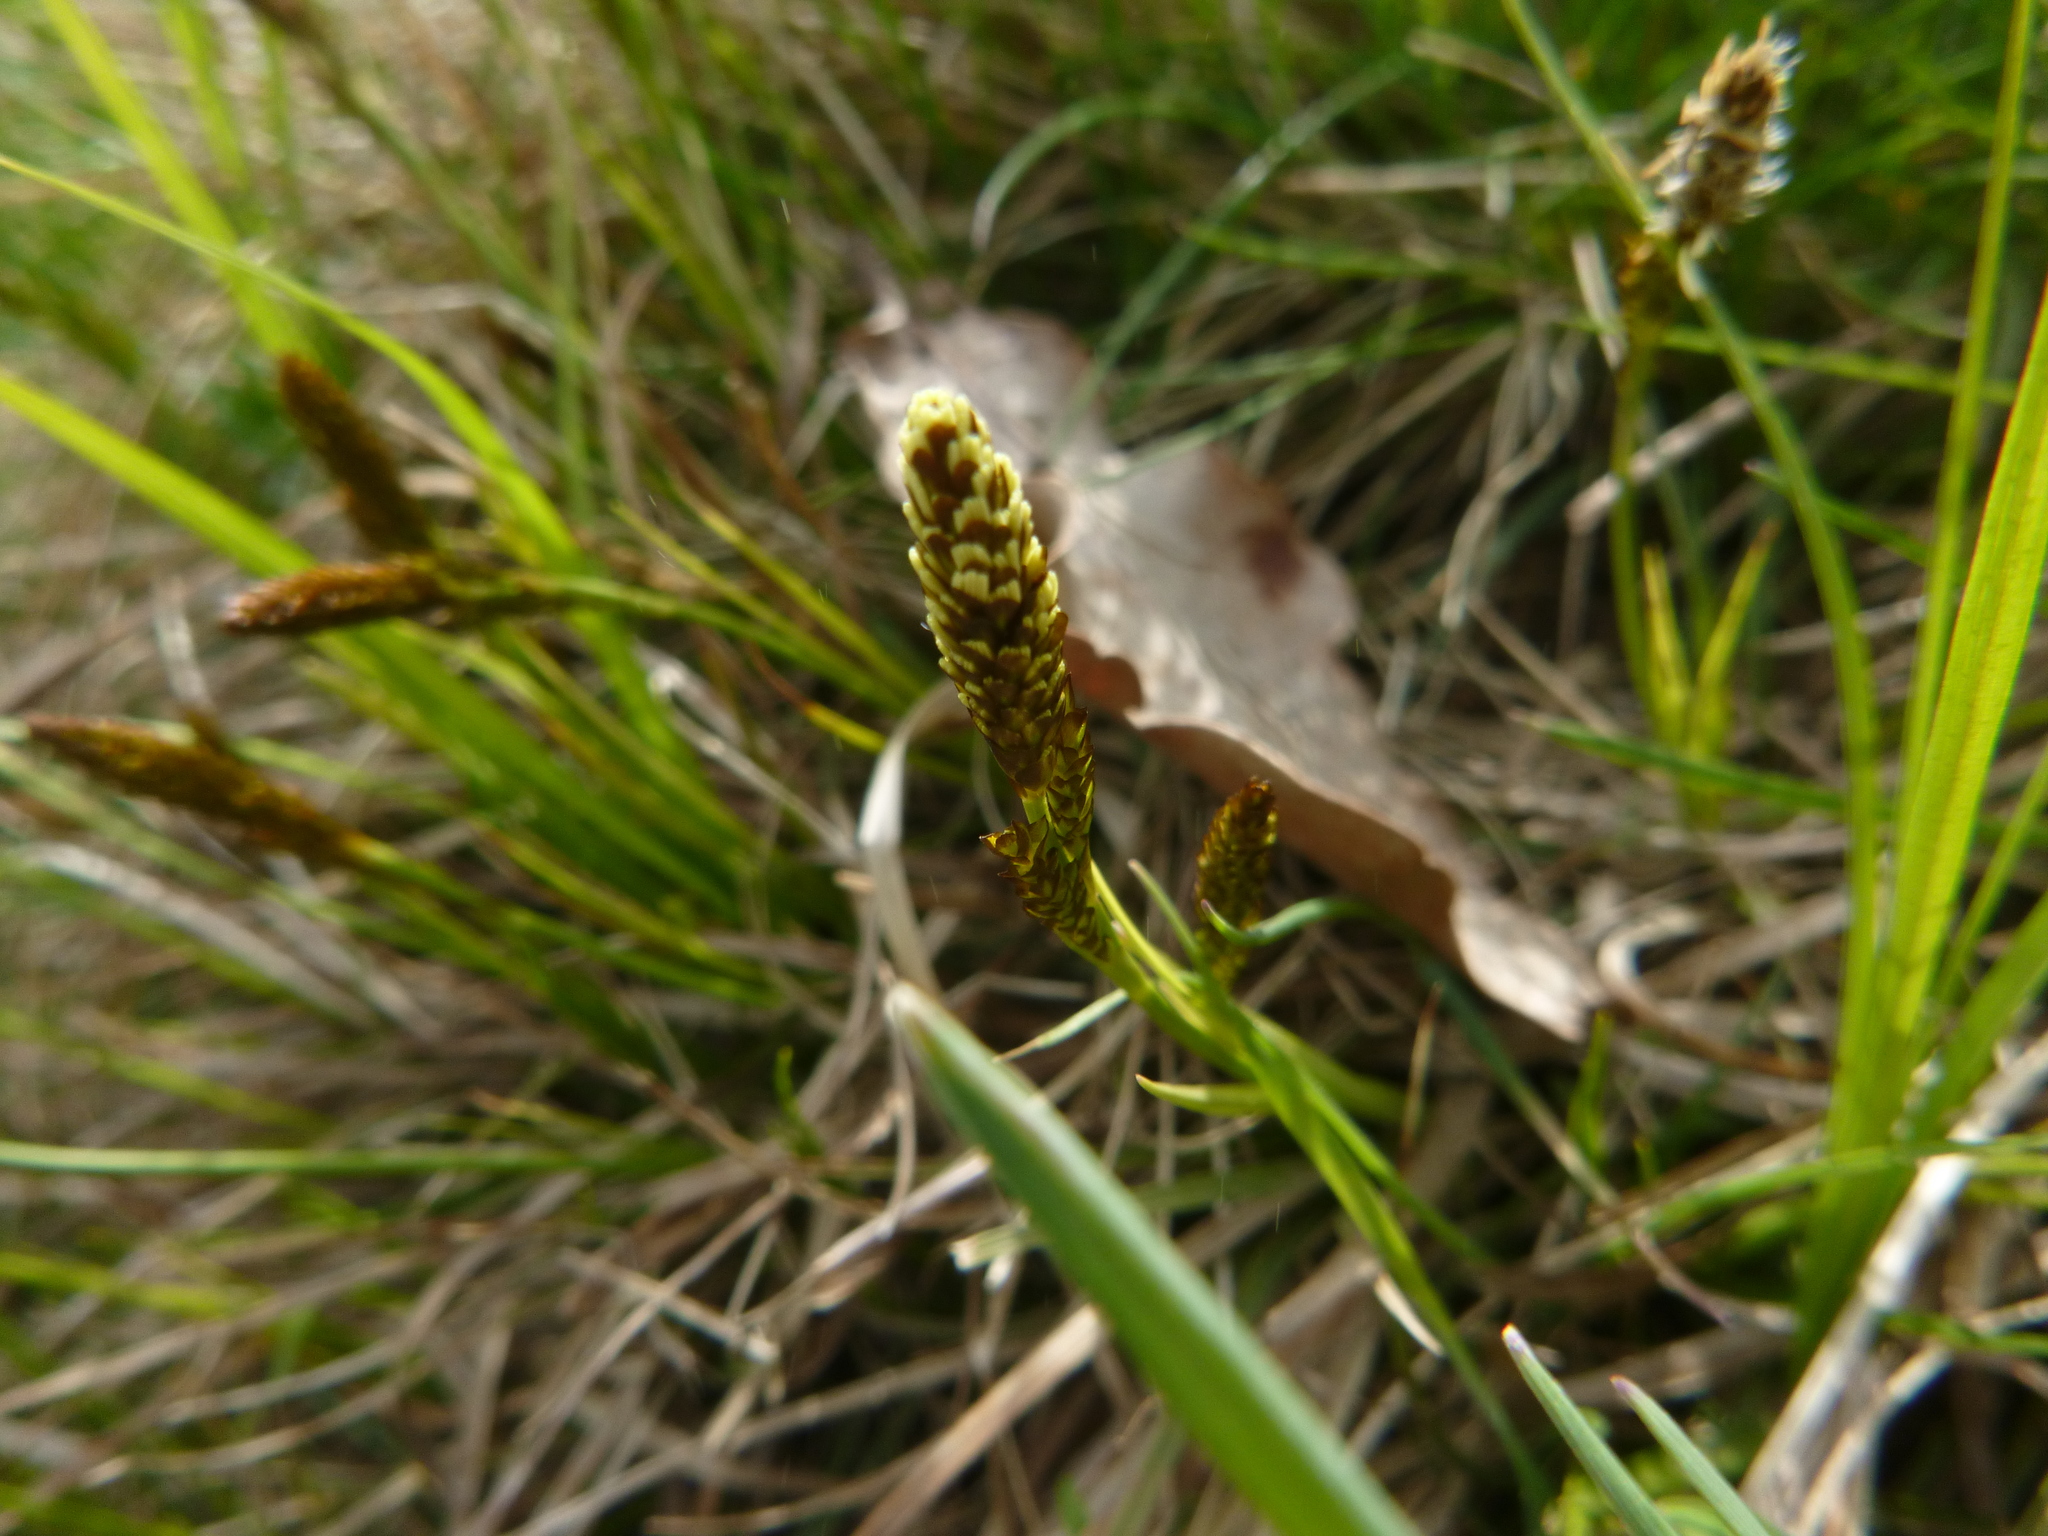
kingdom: Plantae
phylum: Tracheophyta
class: Liliopsida
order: Poales
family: Cyperaceae
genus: Carex
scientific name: Carex caryophyllea
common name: Spring sedge
